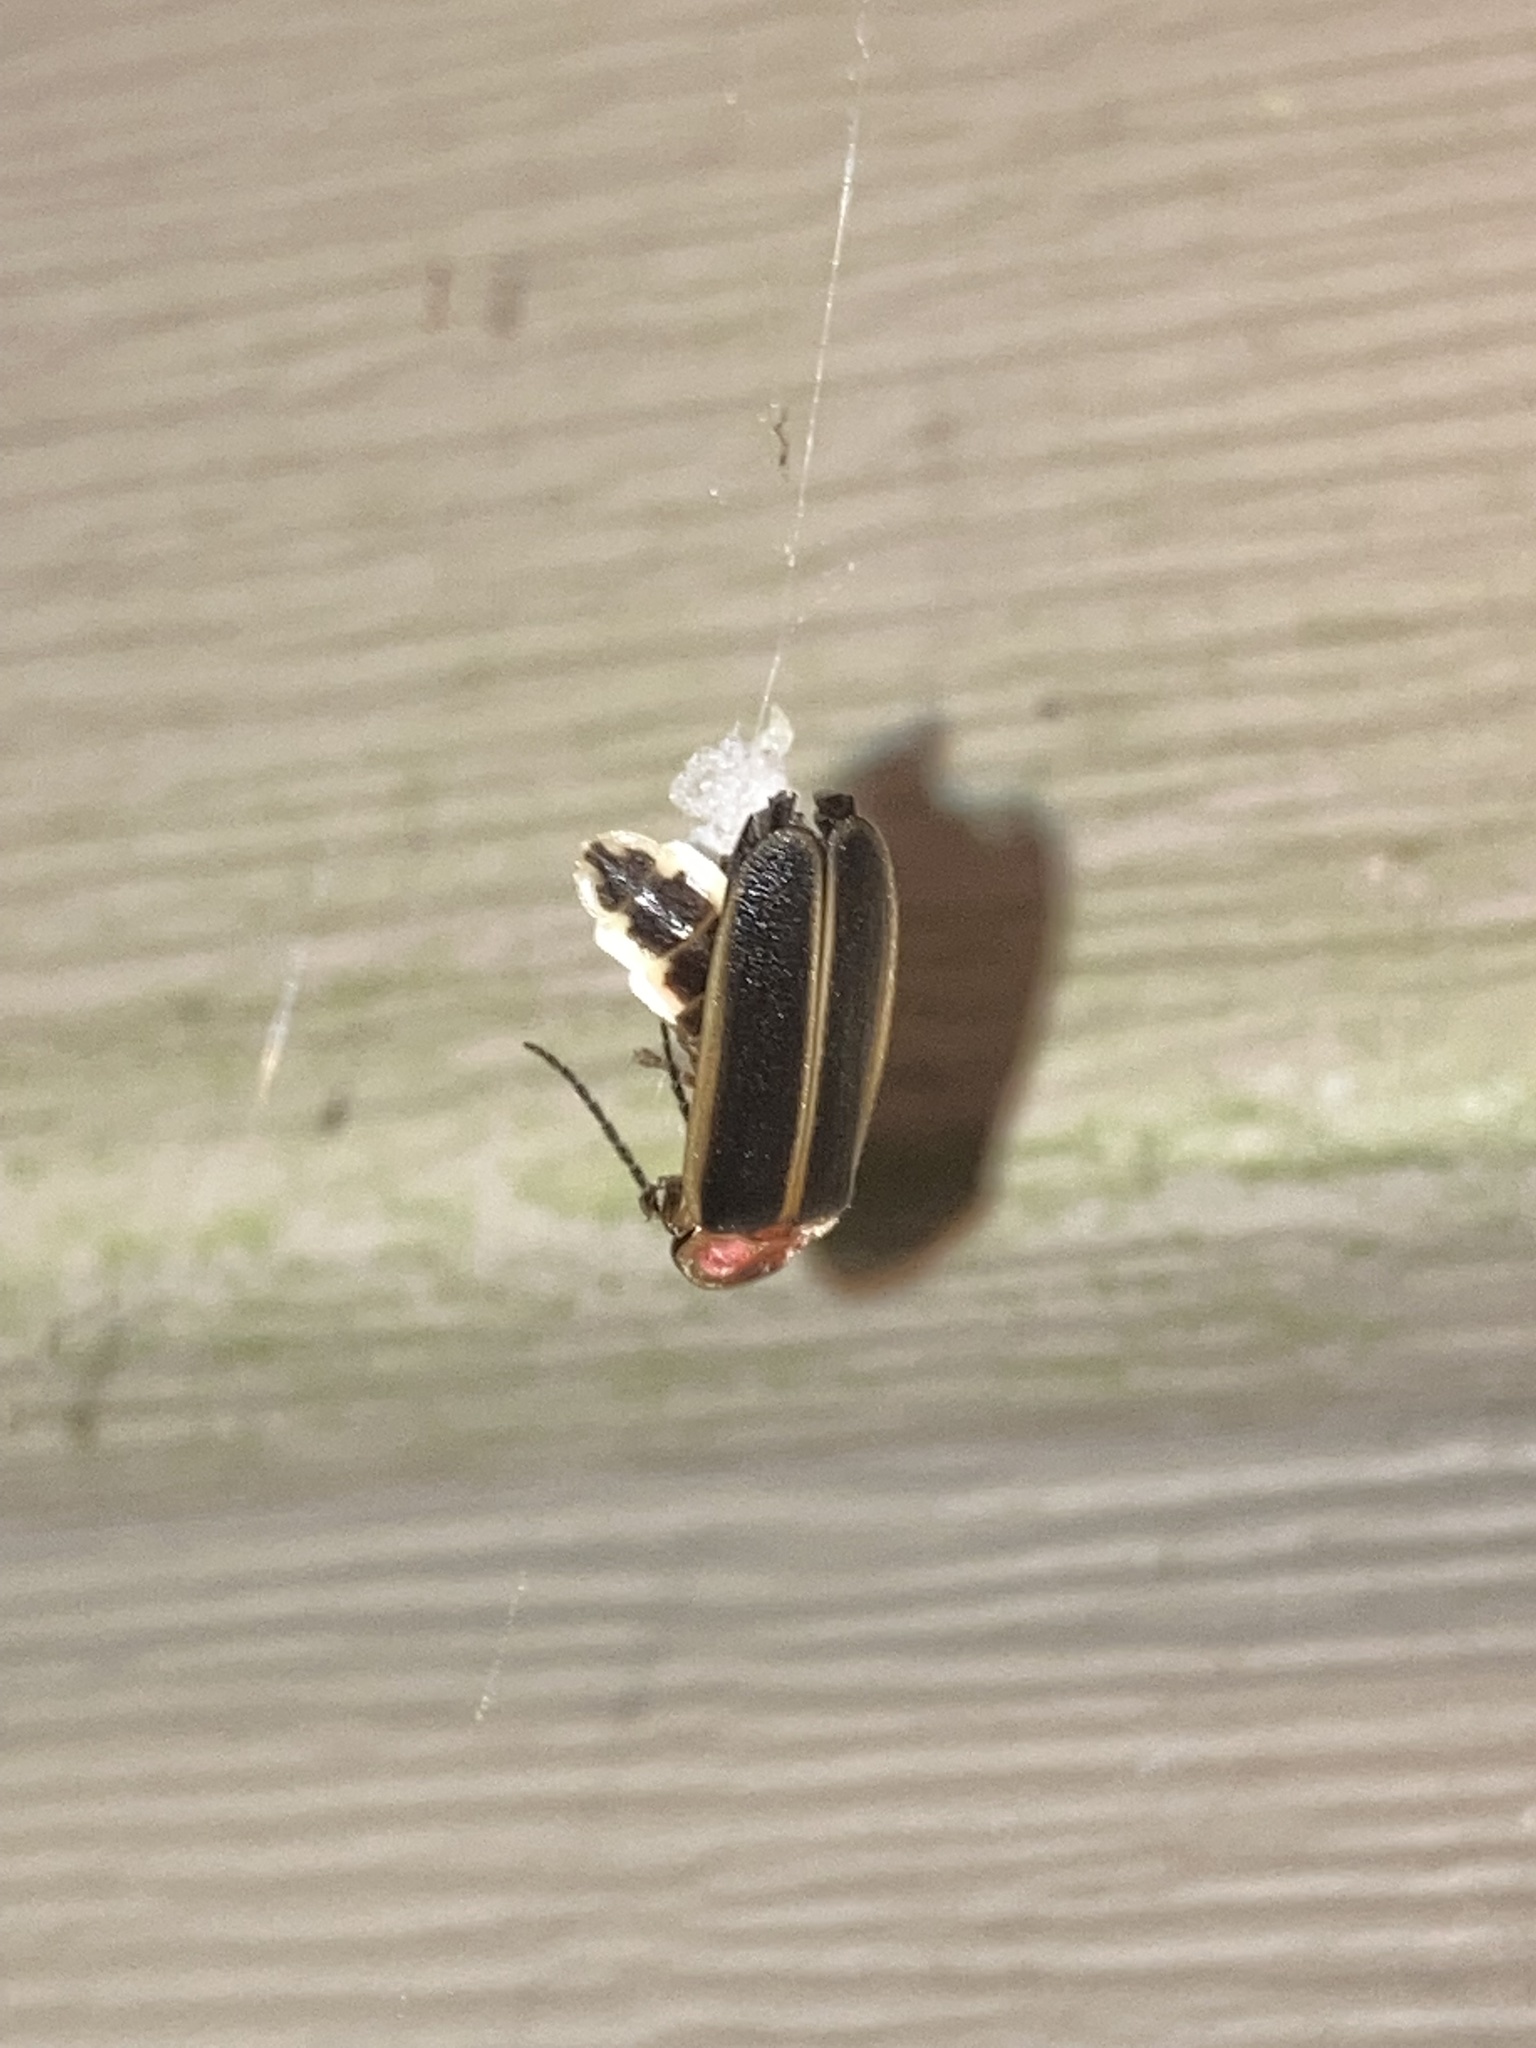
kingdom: Animalia
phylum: Arthropoda
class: Insecta
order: Coleoptera
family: Lampyridae
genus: Photinus
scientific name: Photinus pyralis
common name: Big dipper firefly
